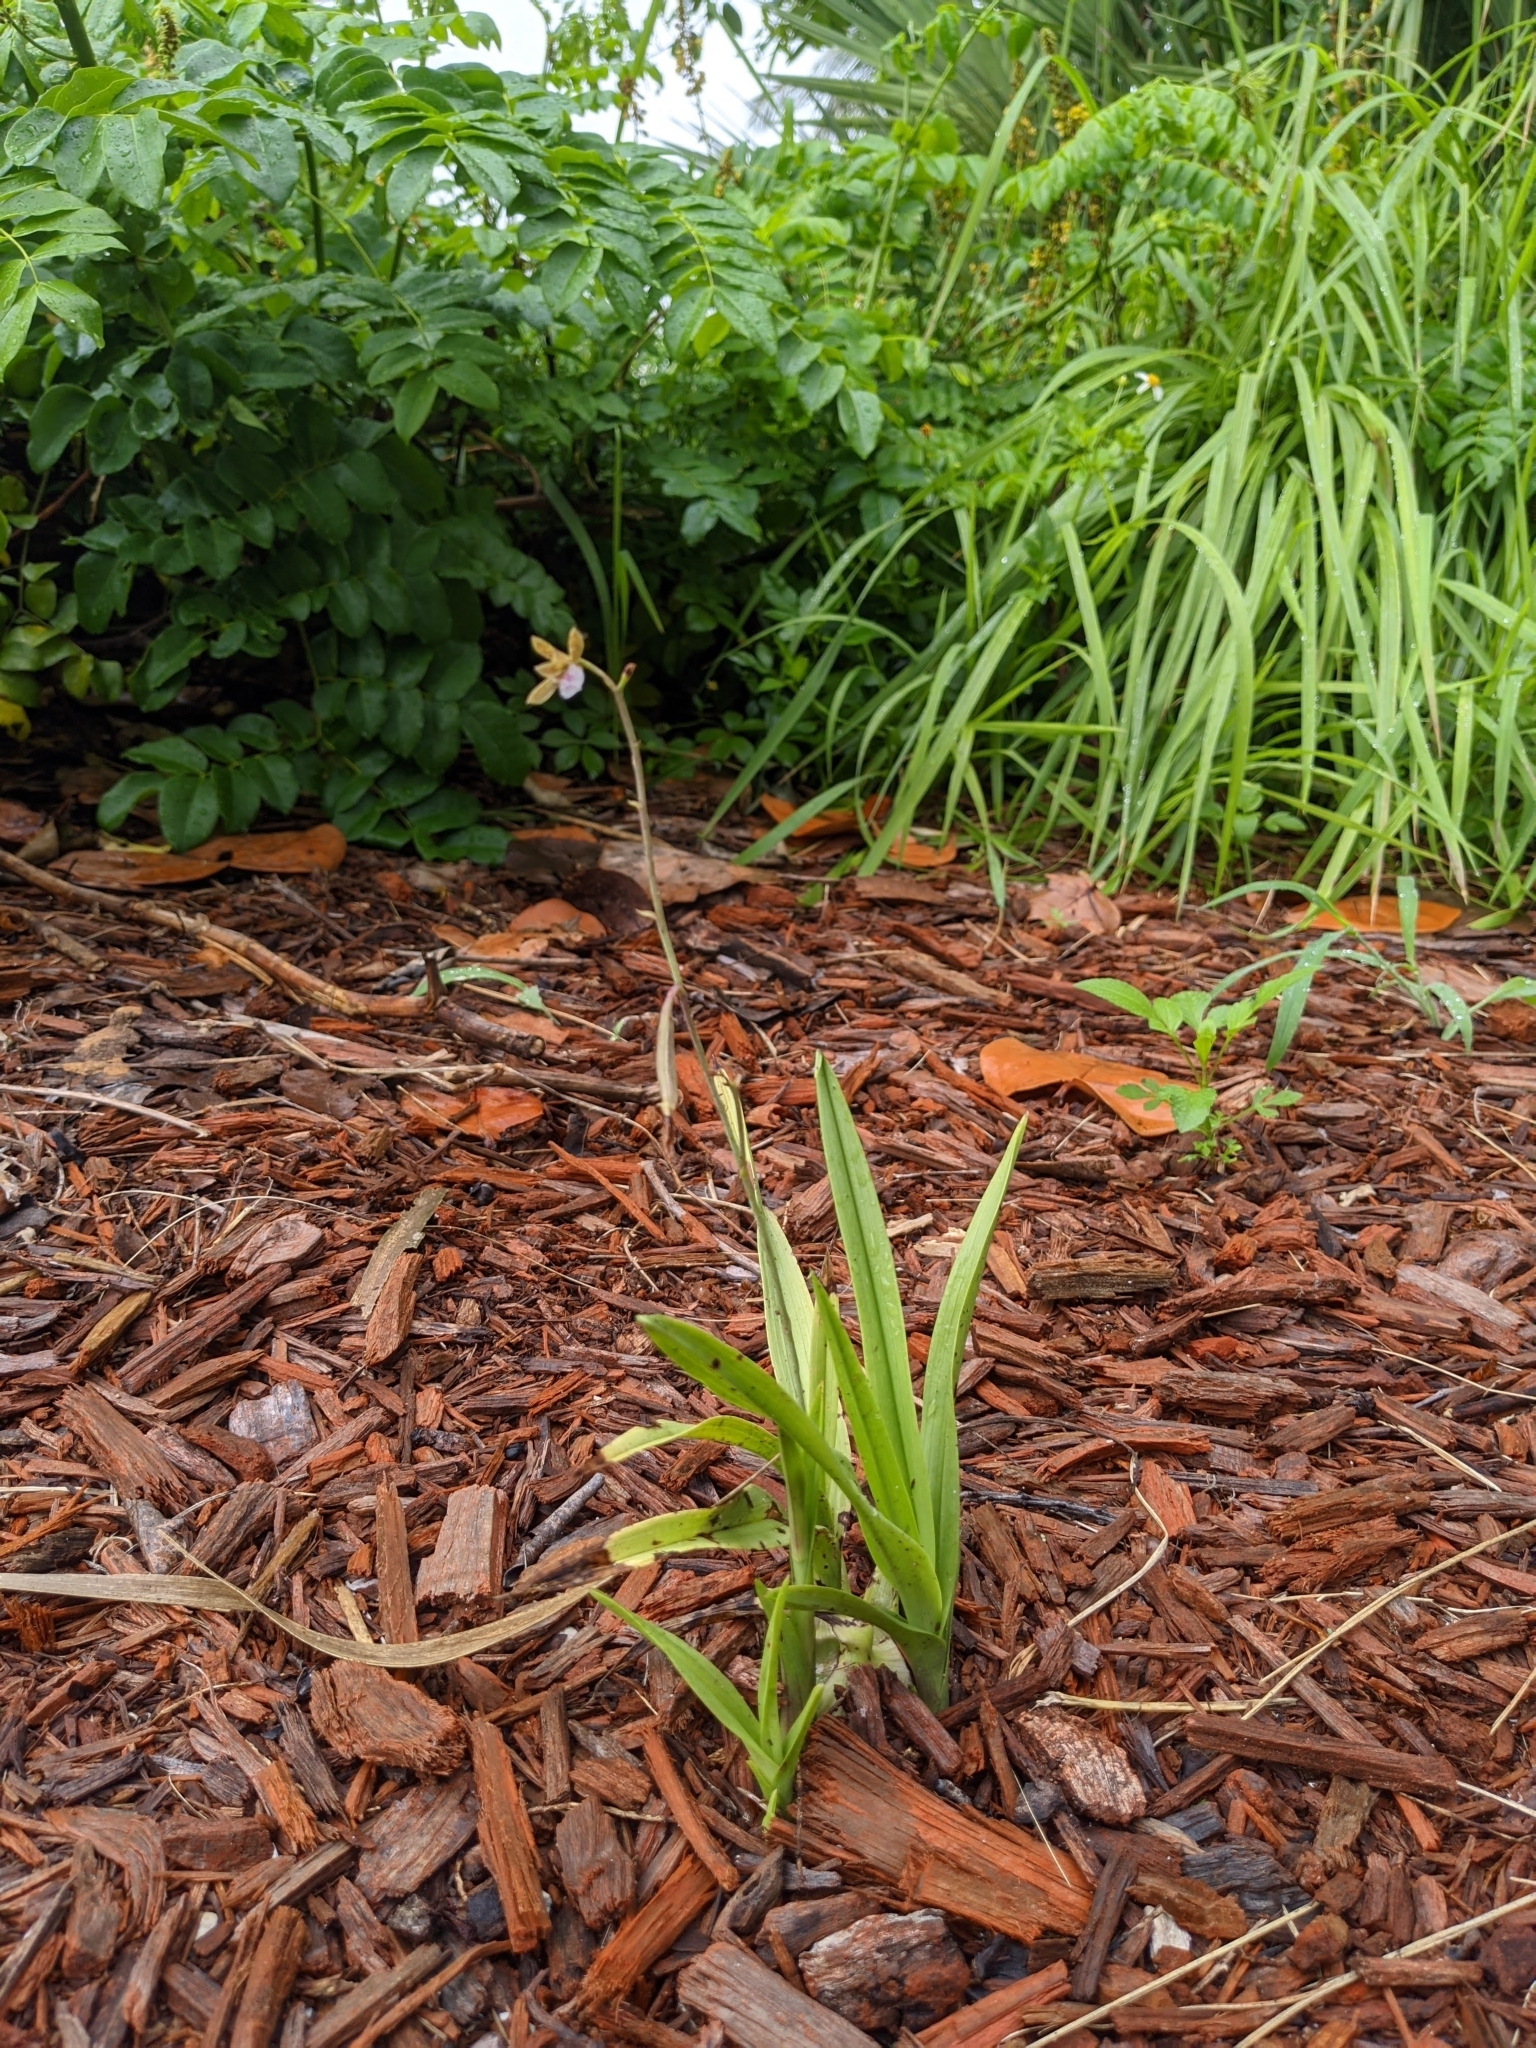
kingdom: Plantae
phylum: Tracheophyta
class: Liliopsida
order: Asparagales
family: Orchidaceae
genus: Eulophia
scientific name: Eulophia graminea
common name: Orchid
